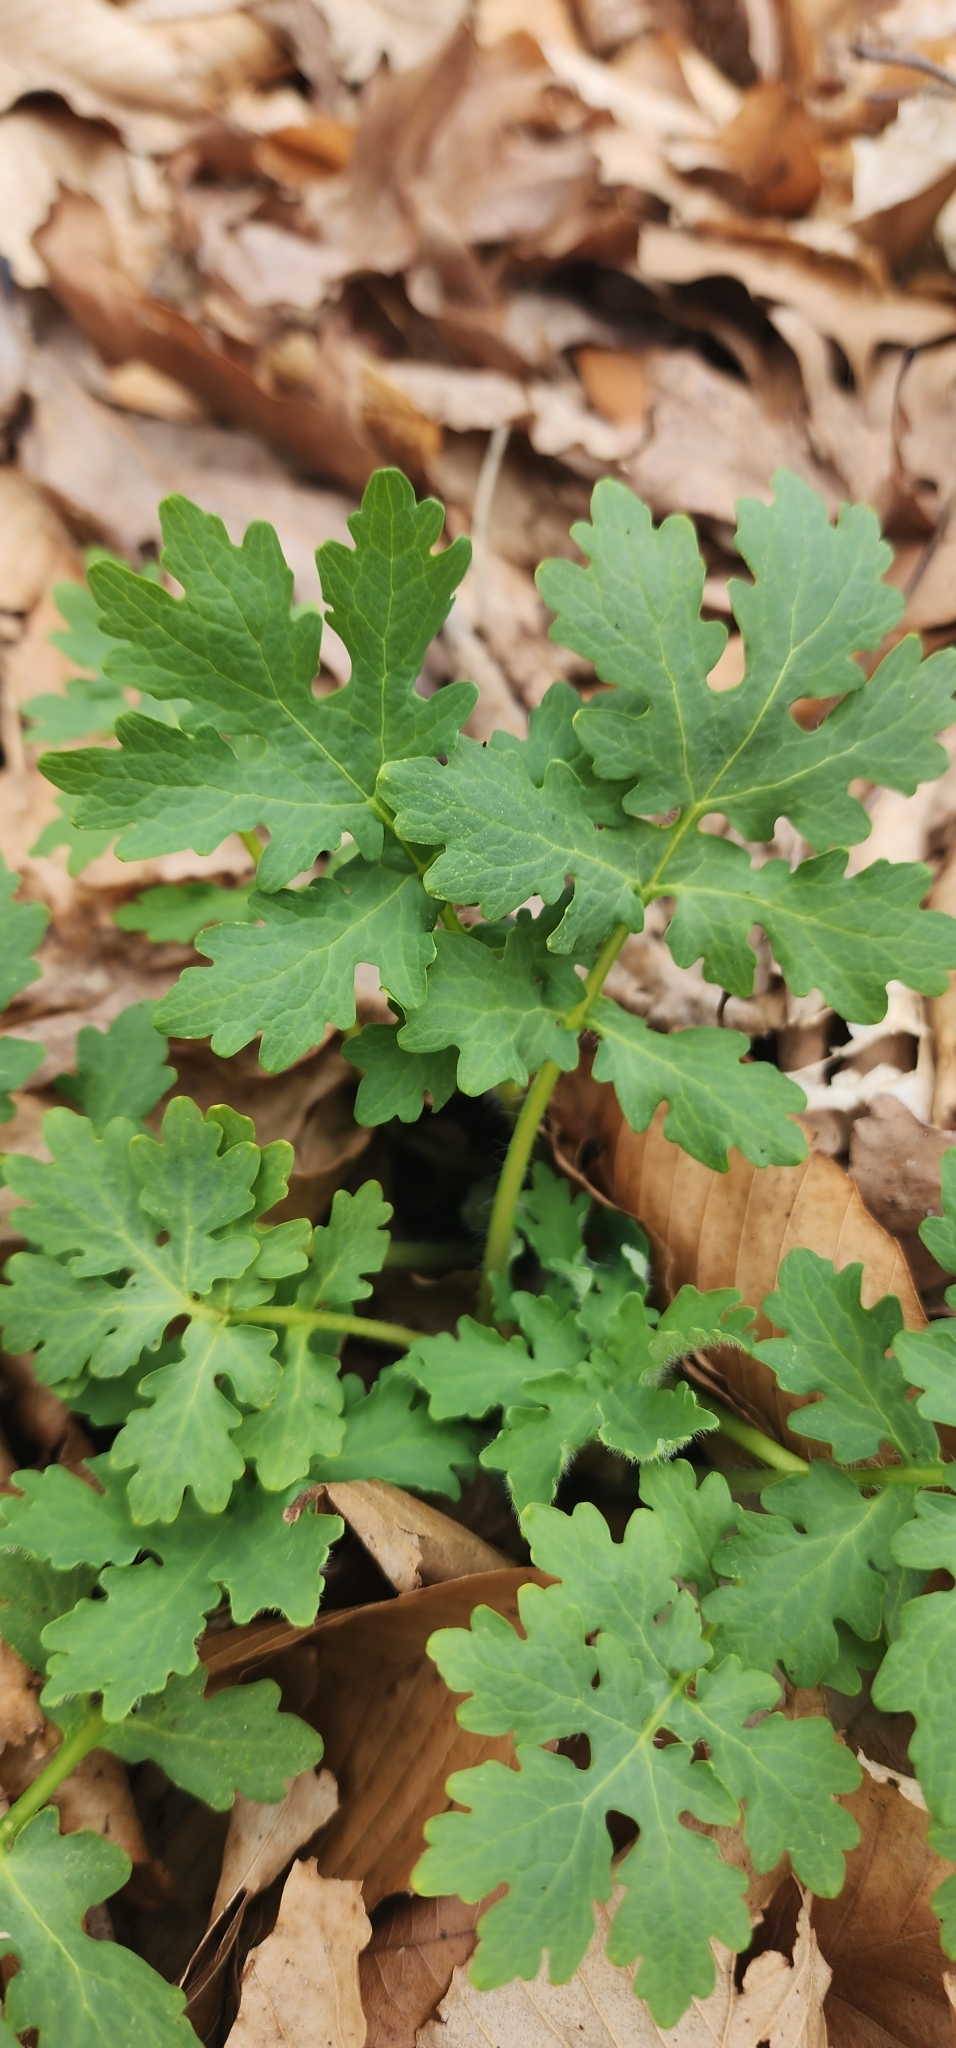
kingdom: Plantae
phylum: Tracheophyta
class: Magnoliopsida
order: Ranunculales
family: Papaveraceae
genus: Stylophorum
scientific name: Stylophorum diphyllum
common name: Celandine poppy
